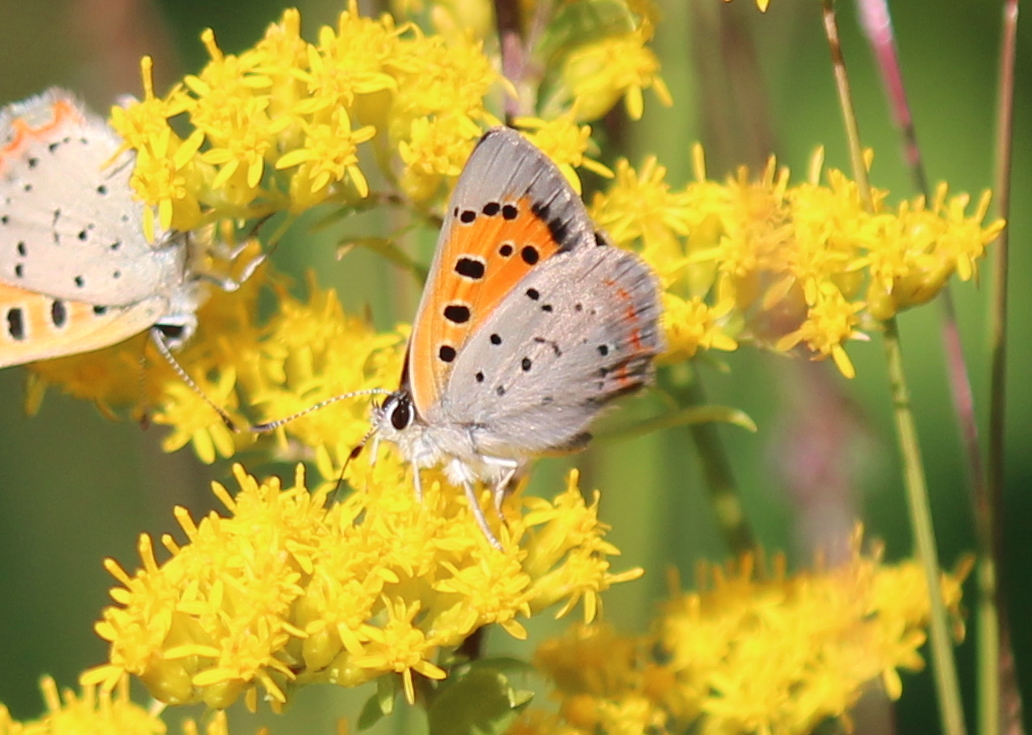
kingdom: Animalia
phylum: Arthropoda
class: Insecta
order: Lepidoptera
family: Lycaenidae
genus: Lycaena
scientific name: Lycaena hypophlaeas
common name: American copper
